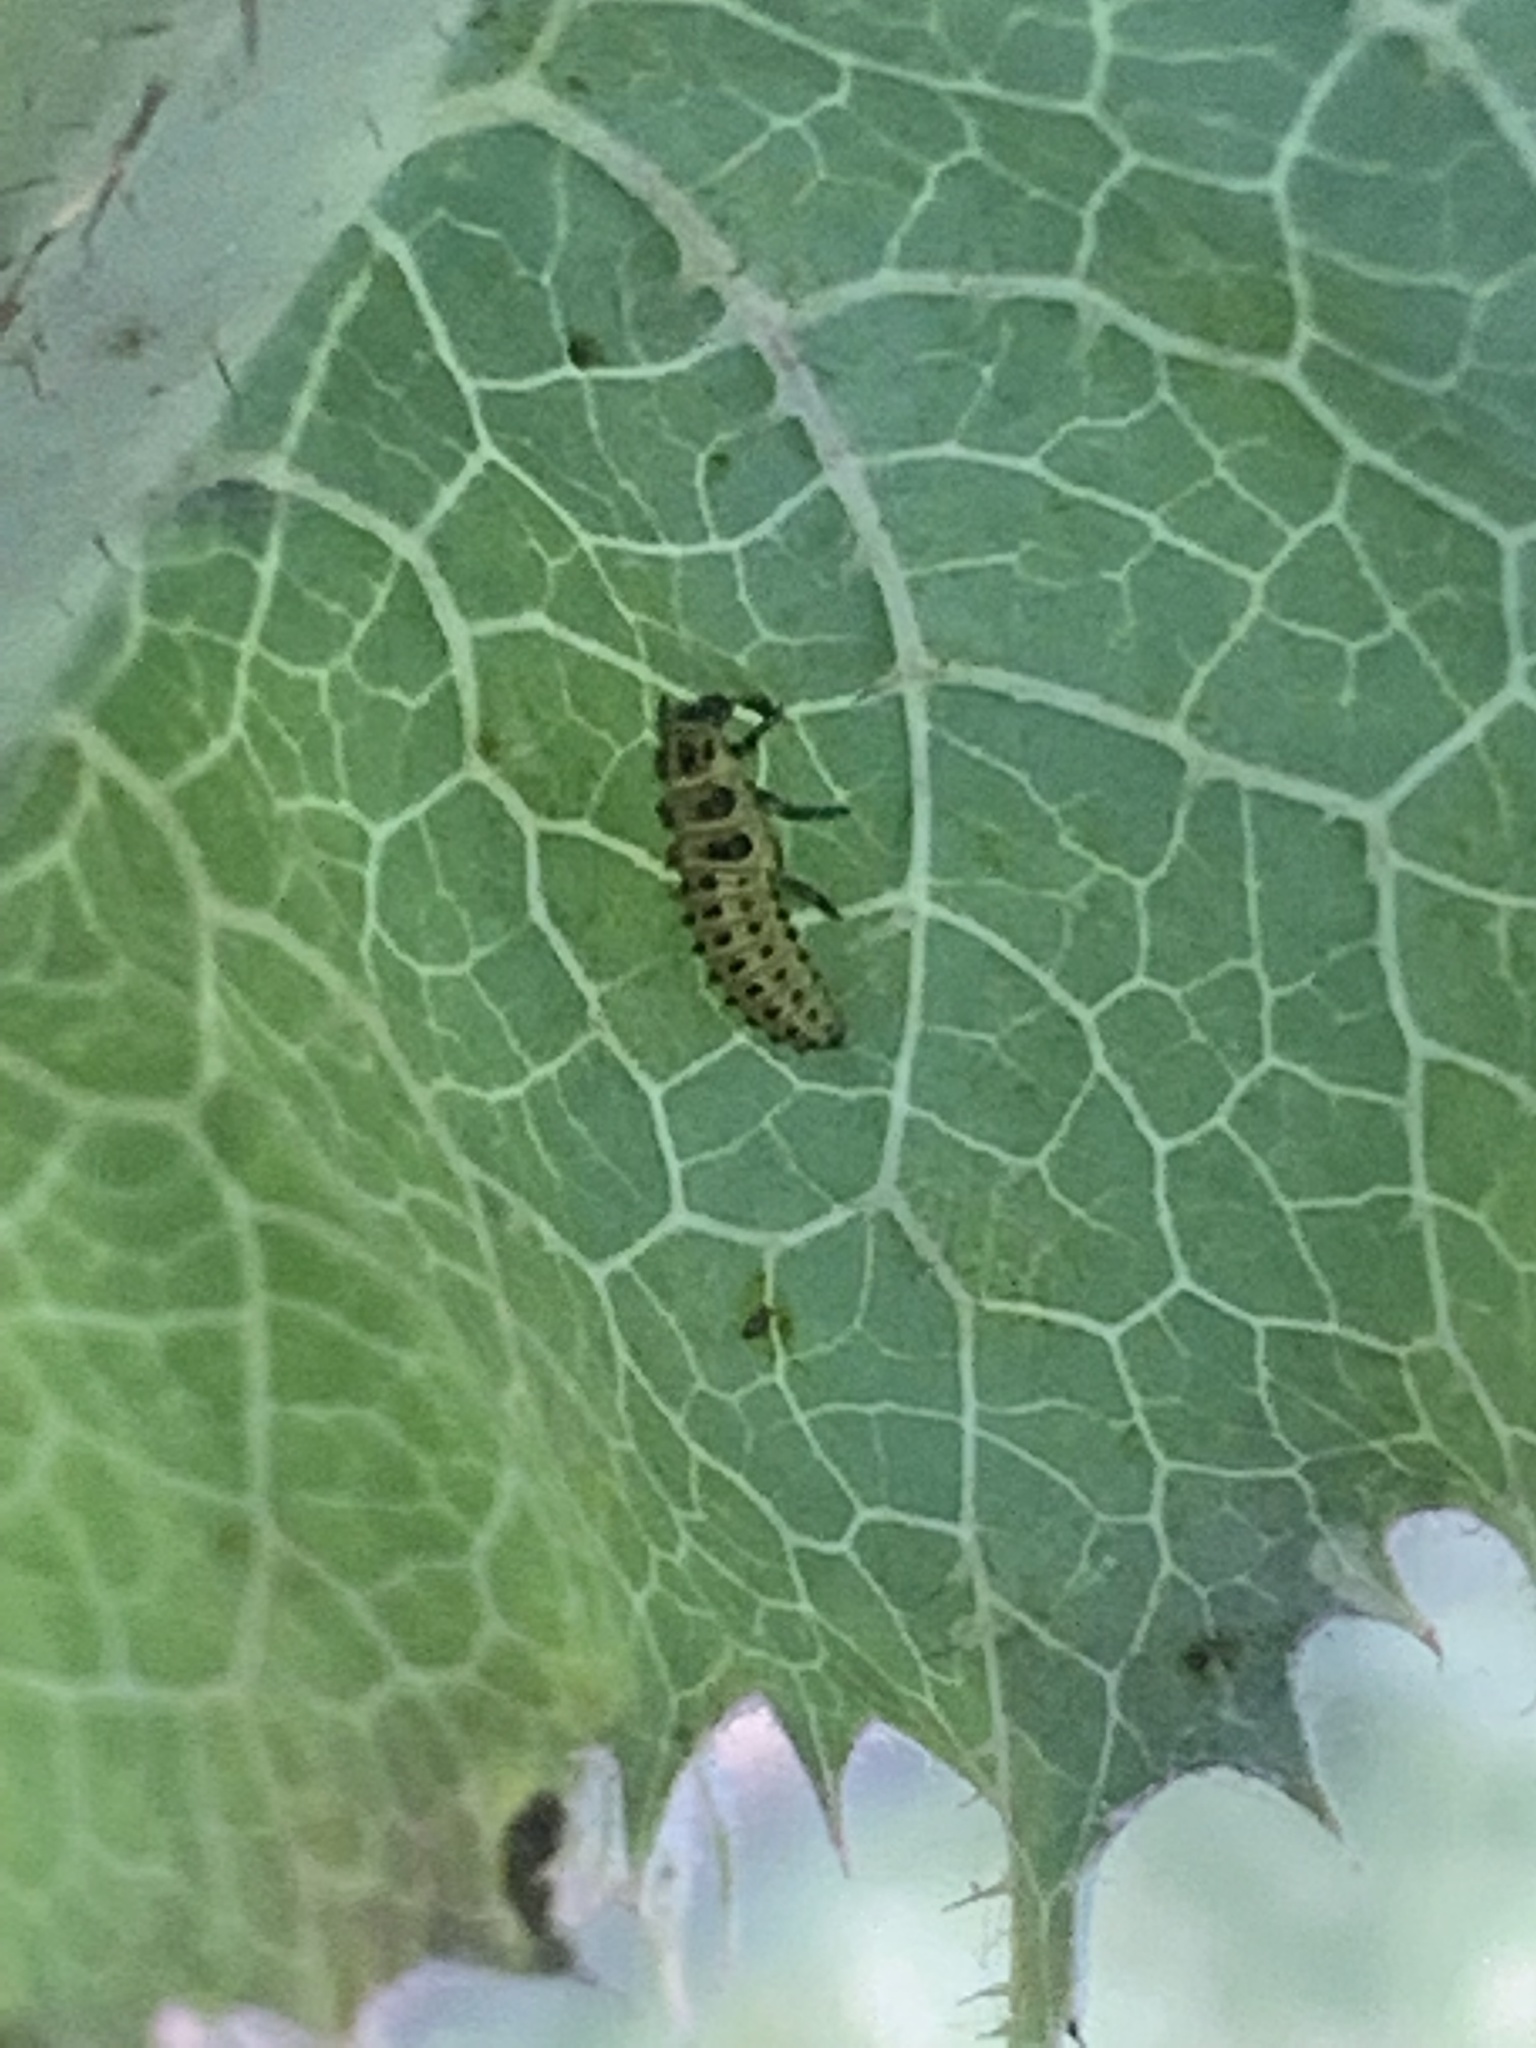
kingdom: Animalia
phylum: Arthropoda
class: Insecta
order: Coleoptera
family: Coccinellidae
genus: Psyllobora
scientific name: Psyllobora vigintiduopunctata
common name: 22-spot ladybird
